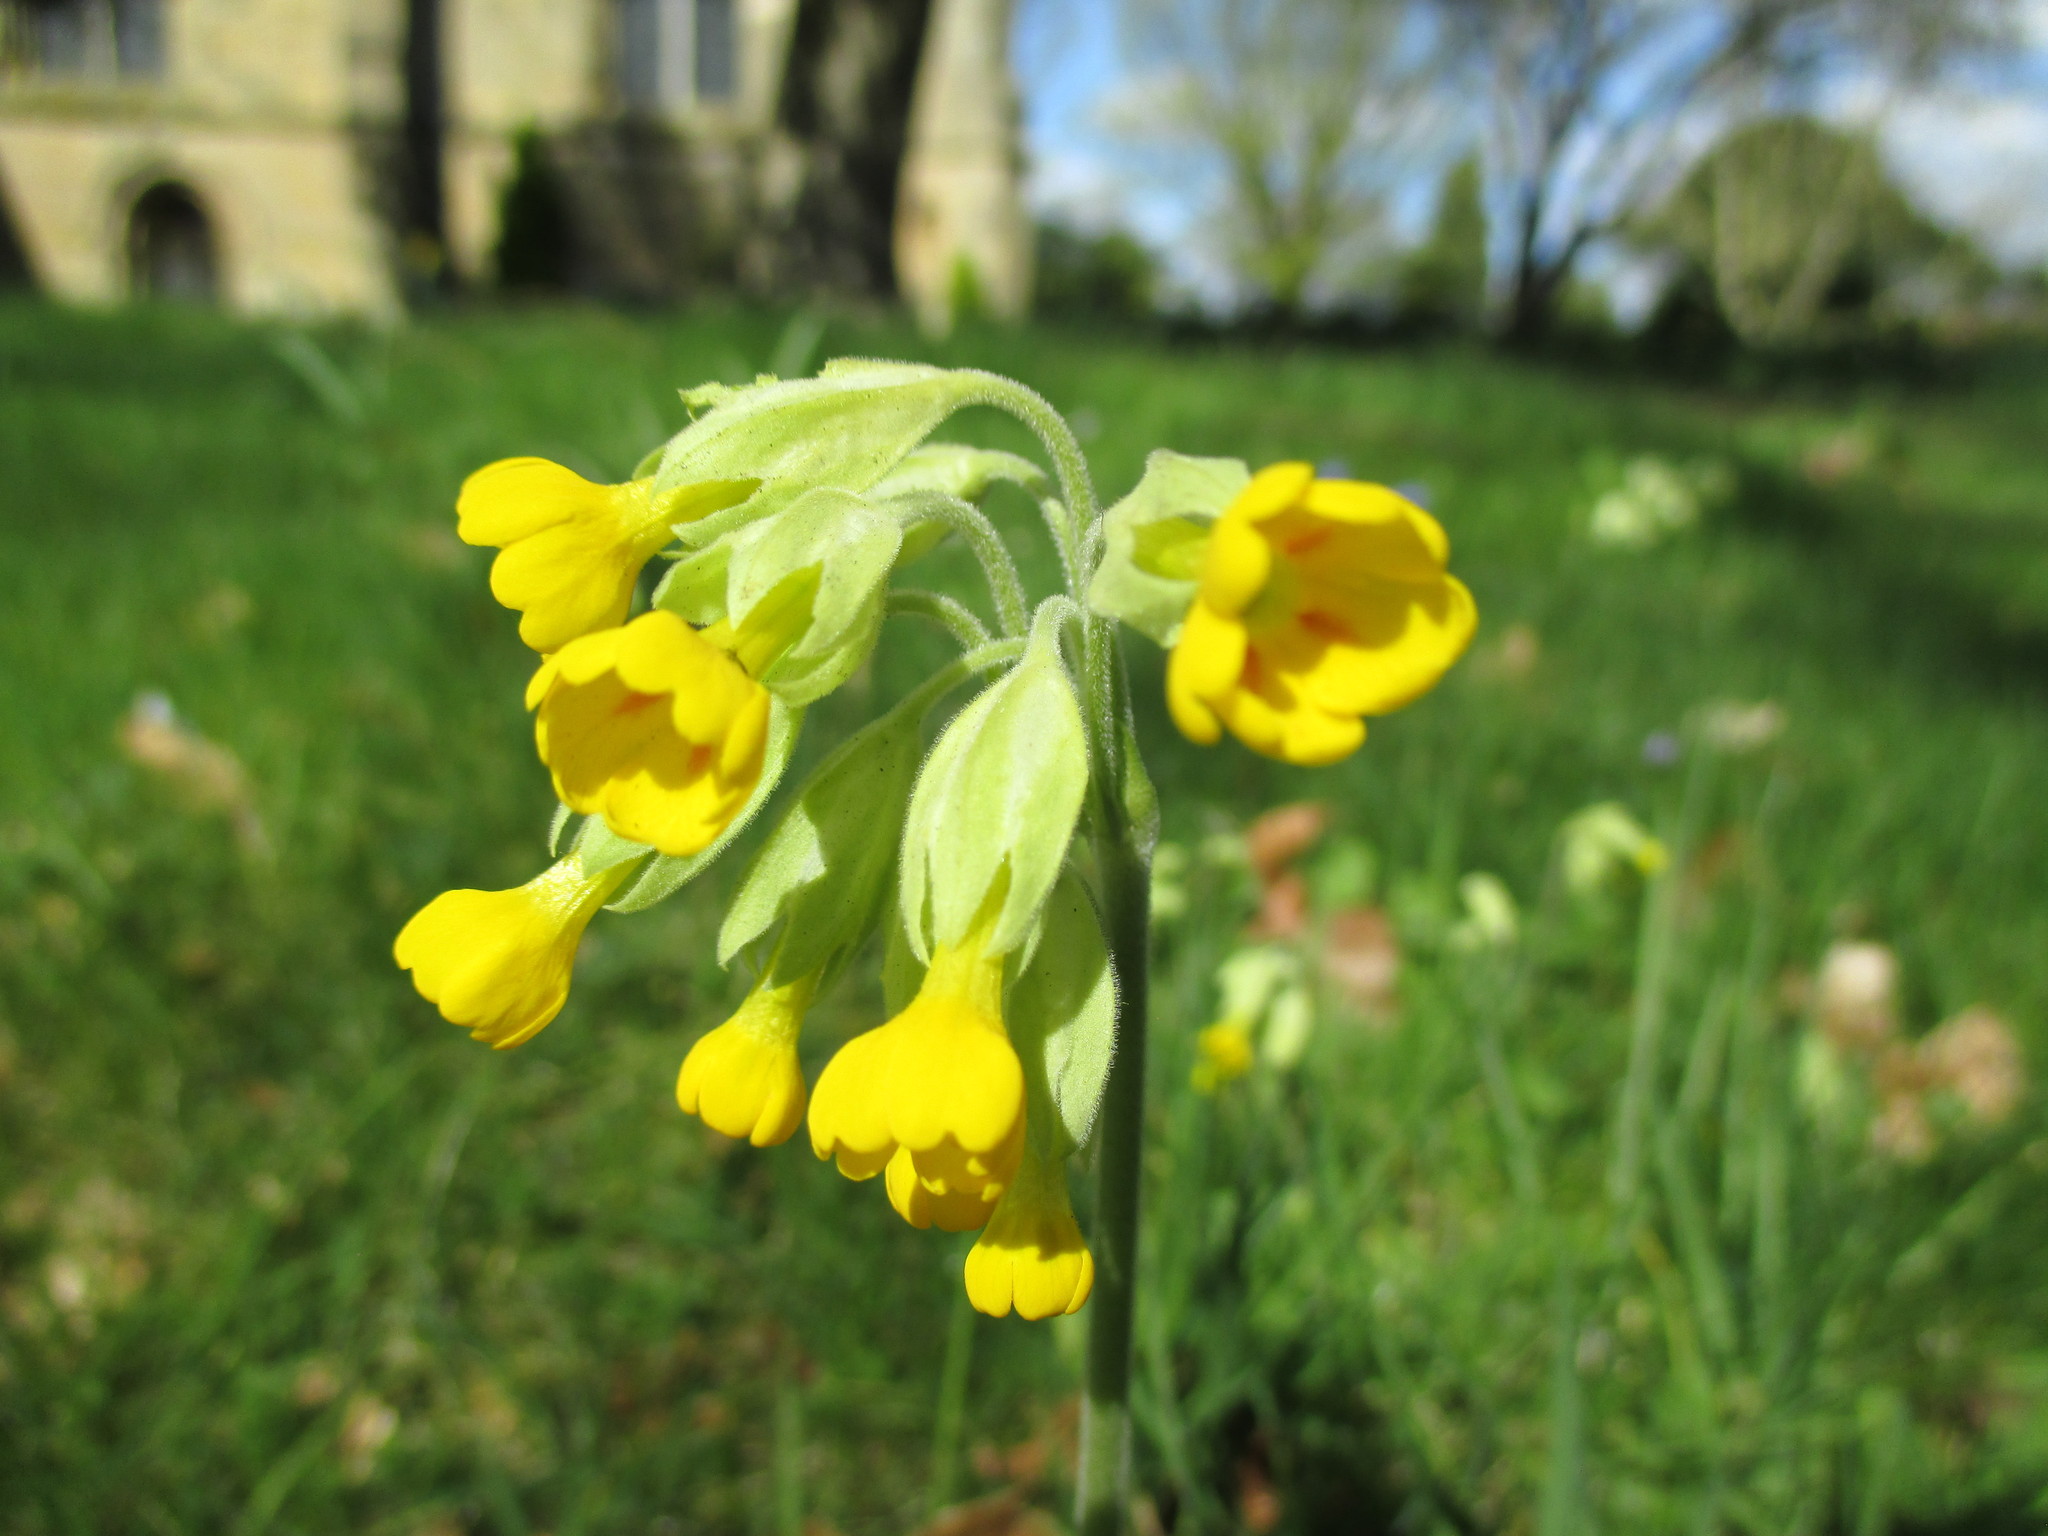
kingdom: Plantae
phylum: Tracheophyta
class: Magnoliopsida
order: Ericales
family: Primulaceae
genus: Primula
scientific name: Primula veris
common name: Cowslip
